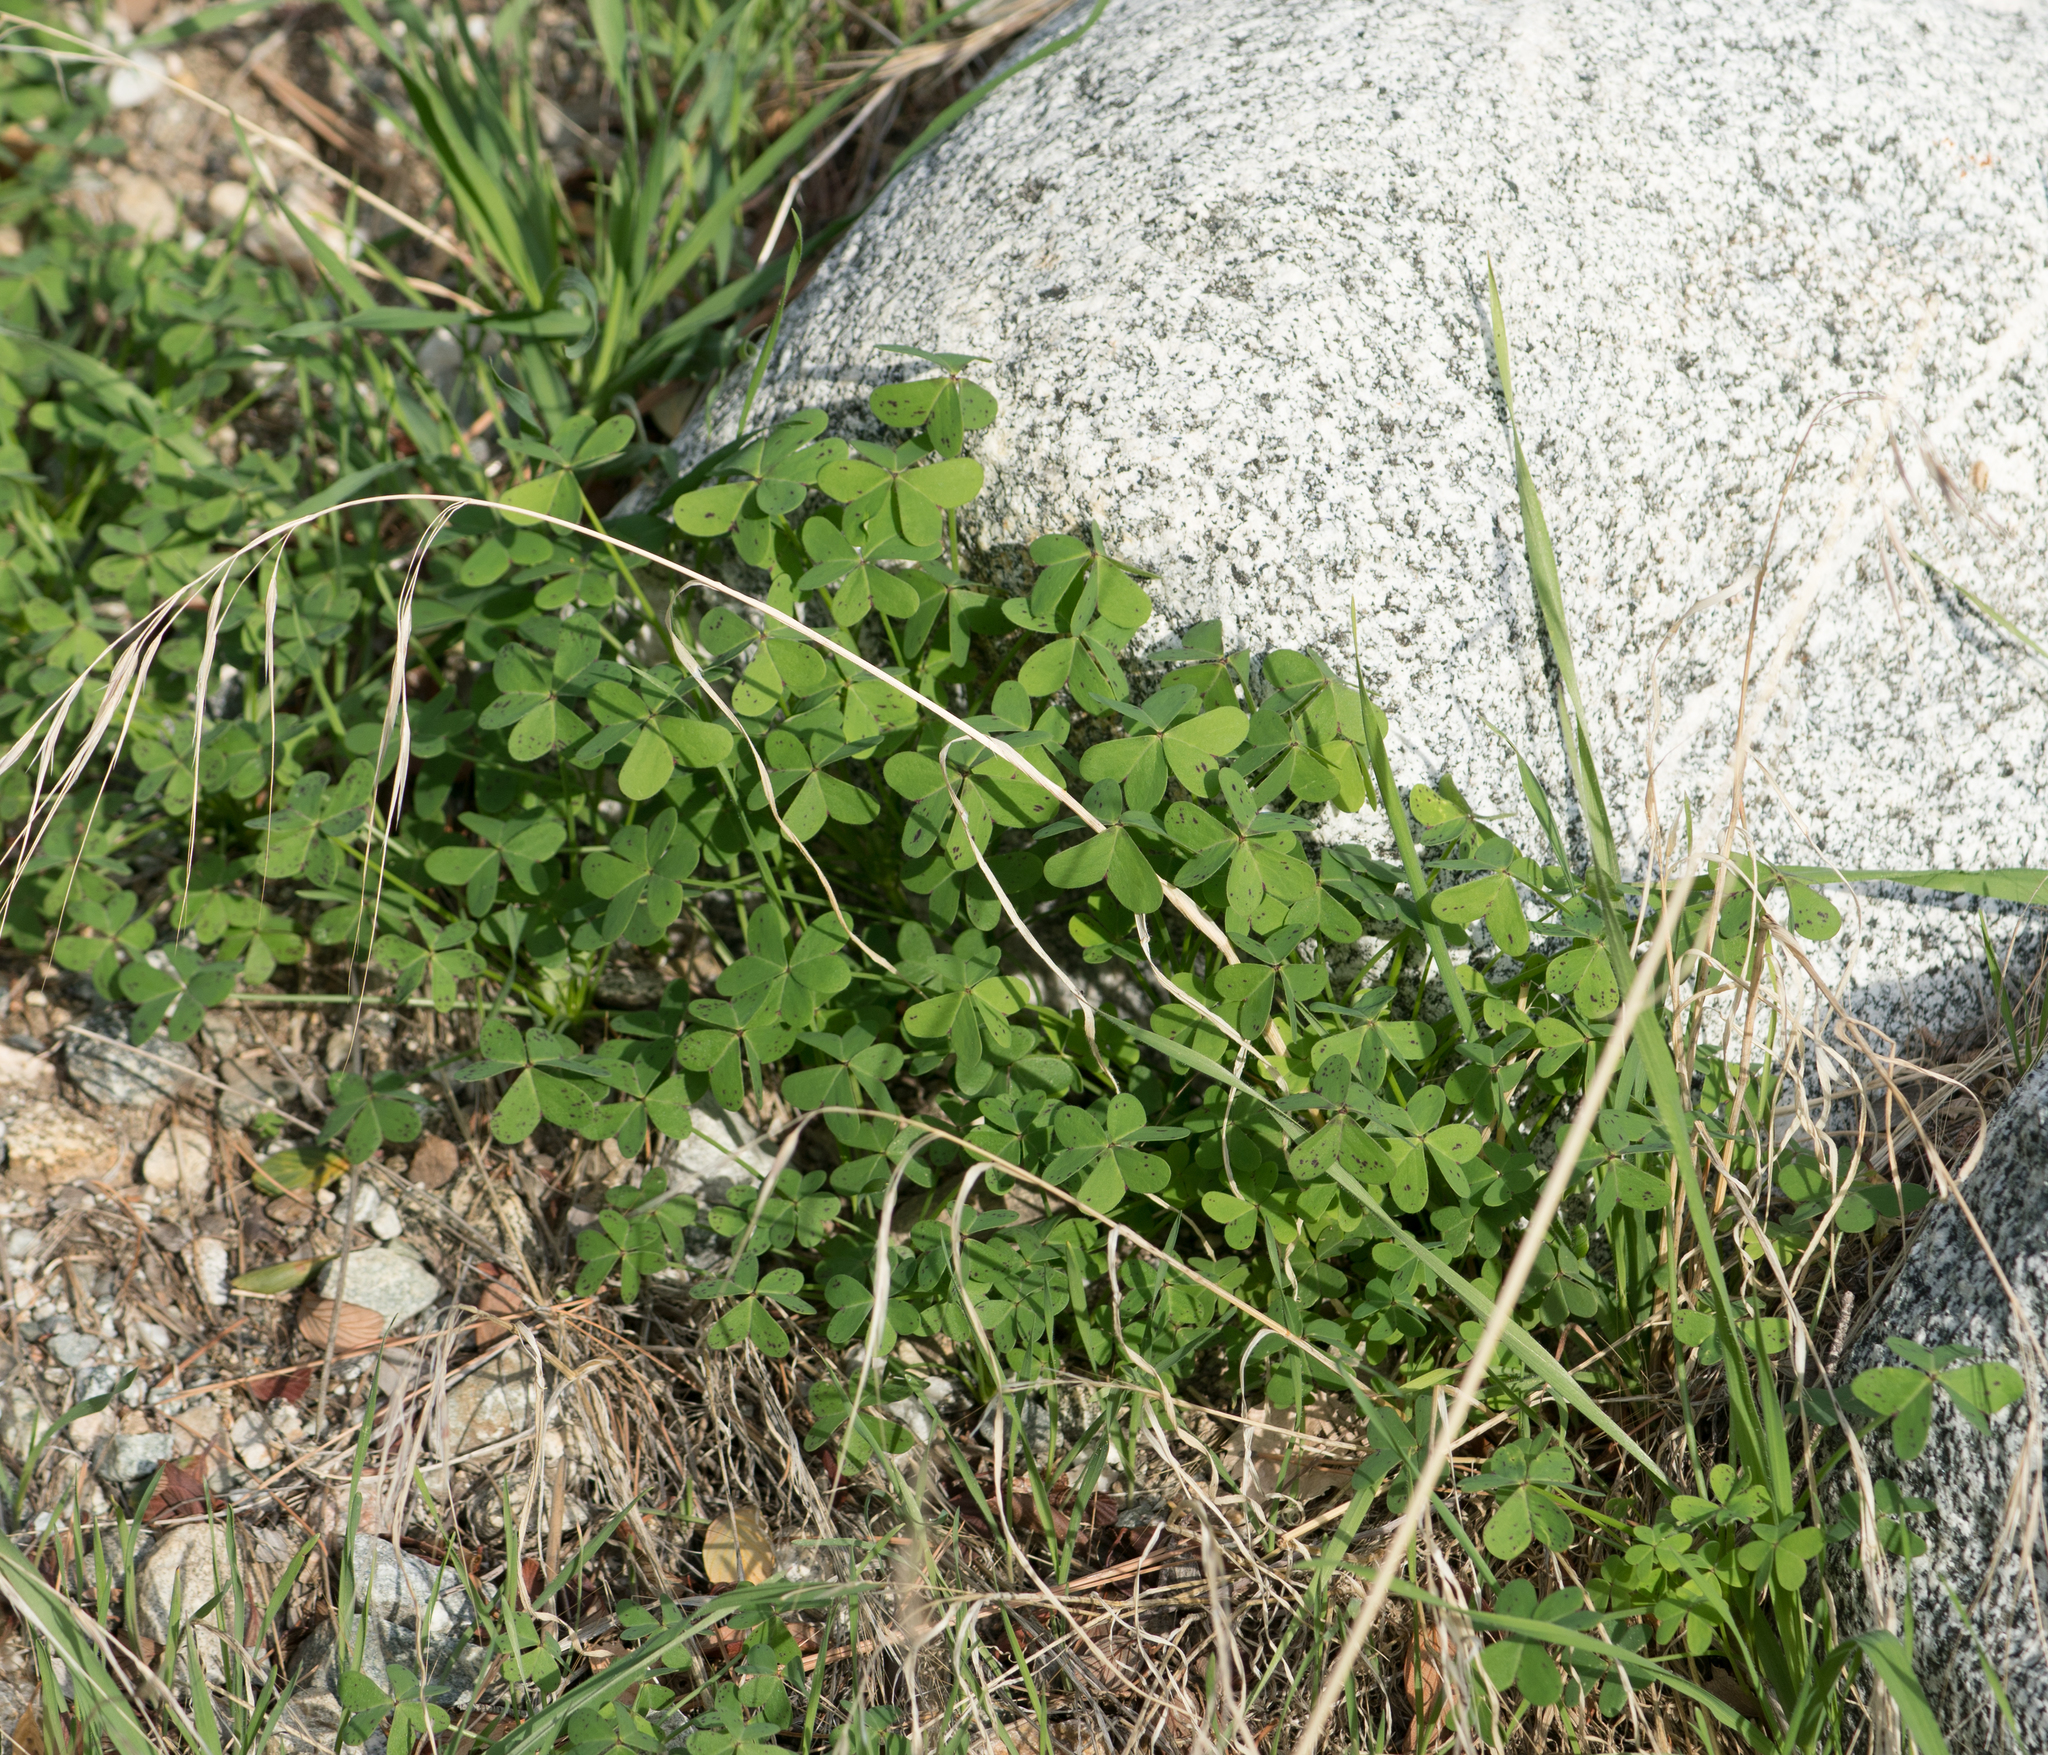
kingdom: Plantae
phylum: Tracheophyta
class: Magnoliopsida
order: Oxalidales
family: Oxalidaceae
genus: Oxalis
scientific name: Oxalis pes-caprae
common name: Bermuda-buttercup
